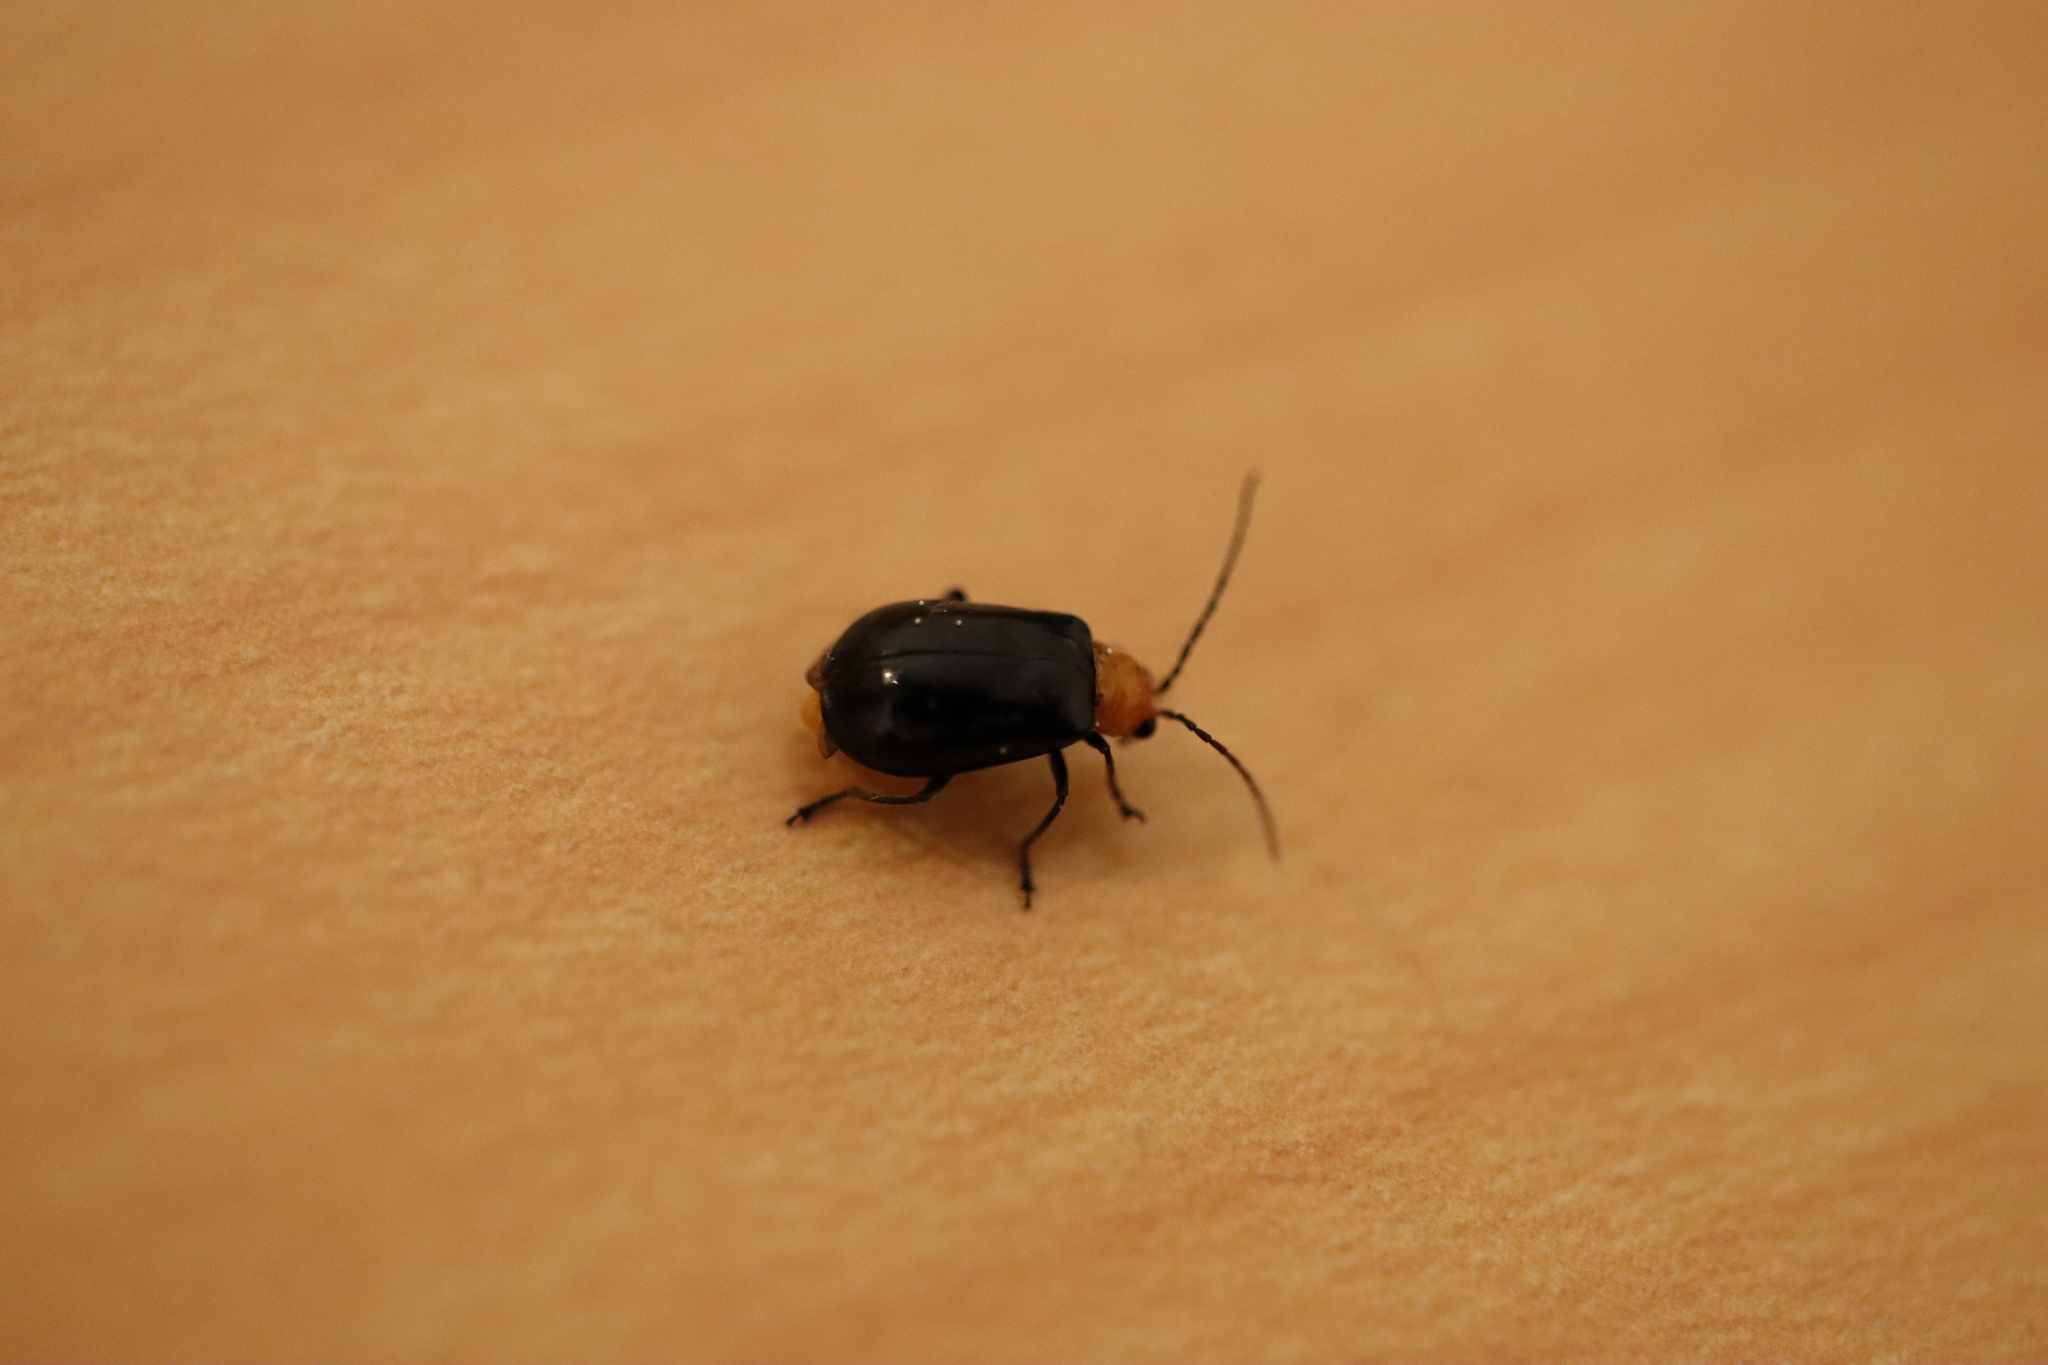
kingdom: Animalia
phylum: Arthropoda
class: Insecta
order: Coleoptera
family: Chrysomelidae
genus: Aulacophora
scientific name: Aulacophora nigripennis
